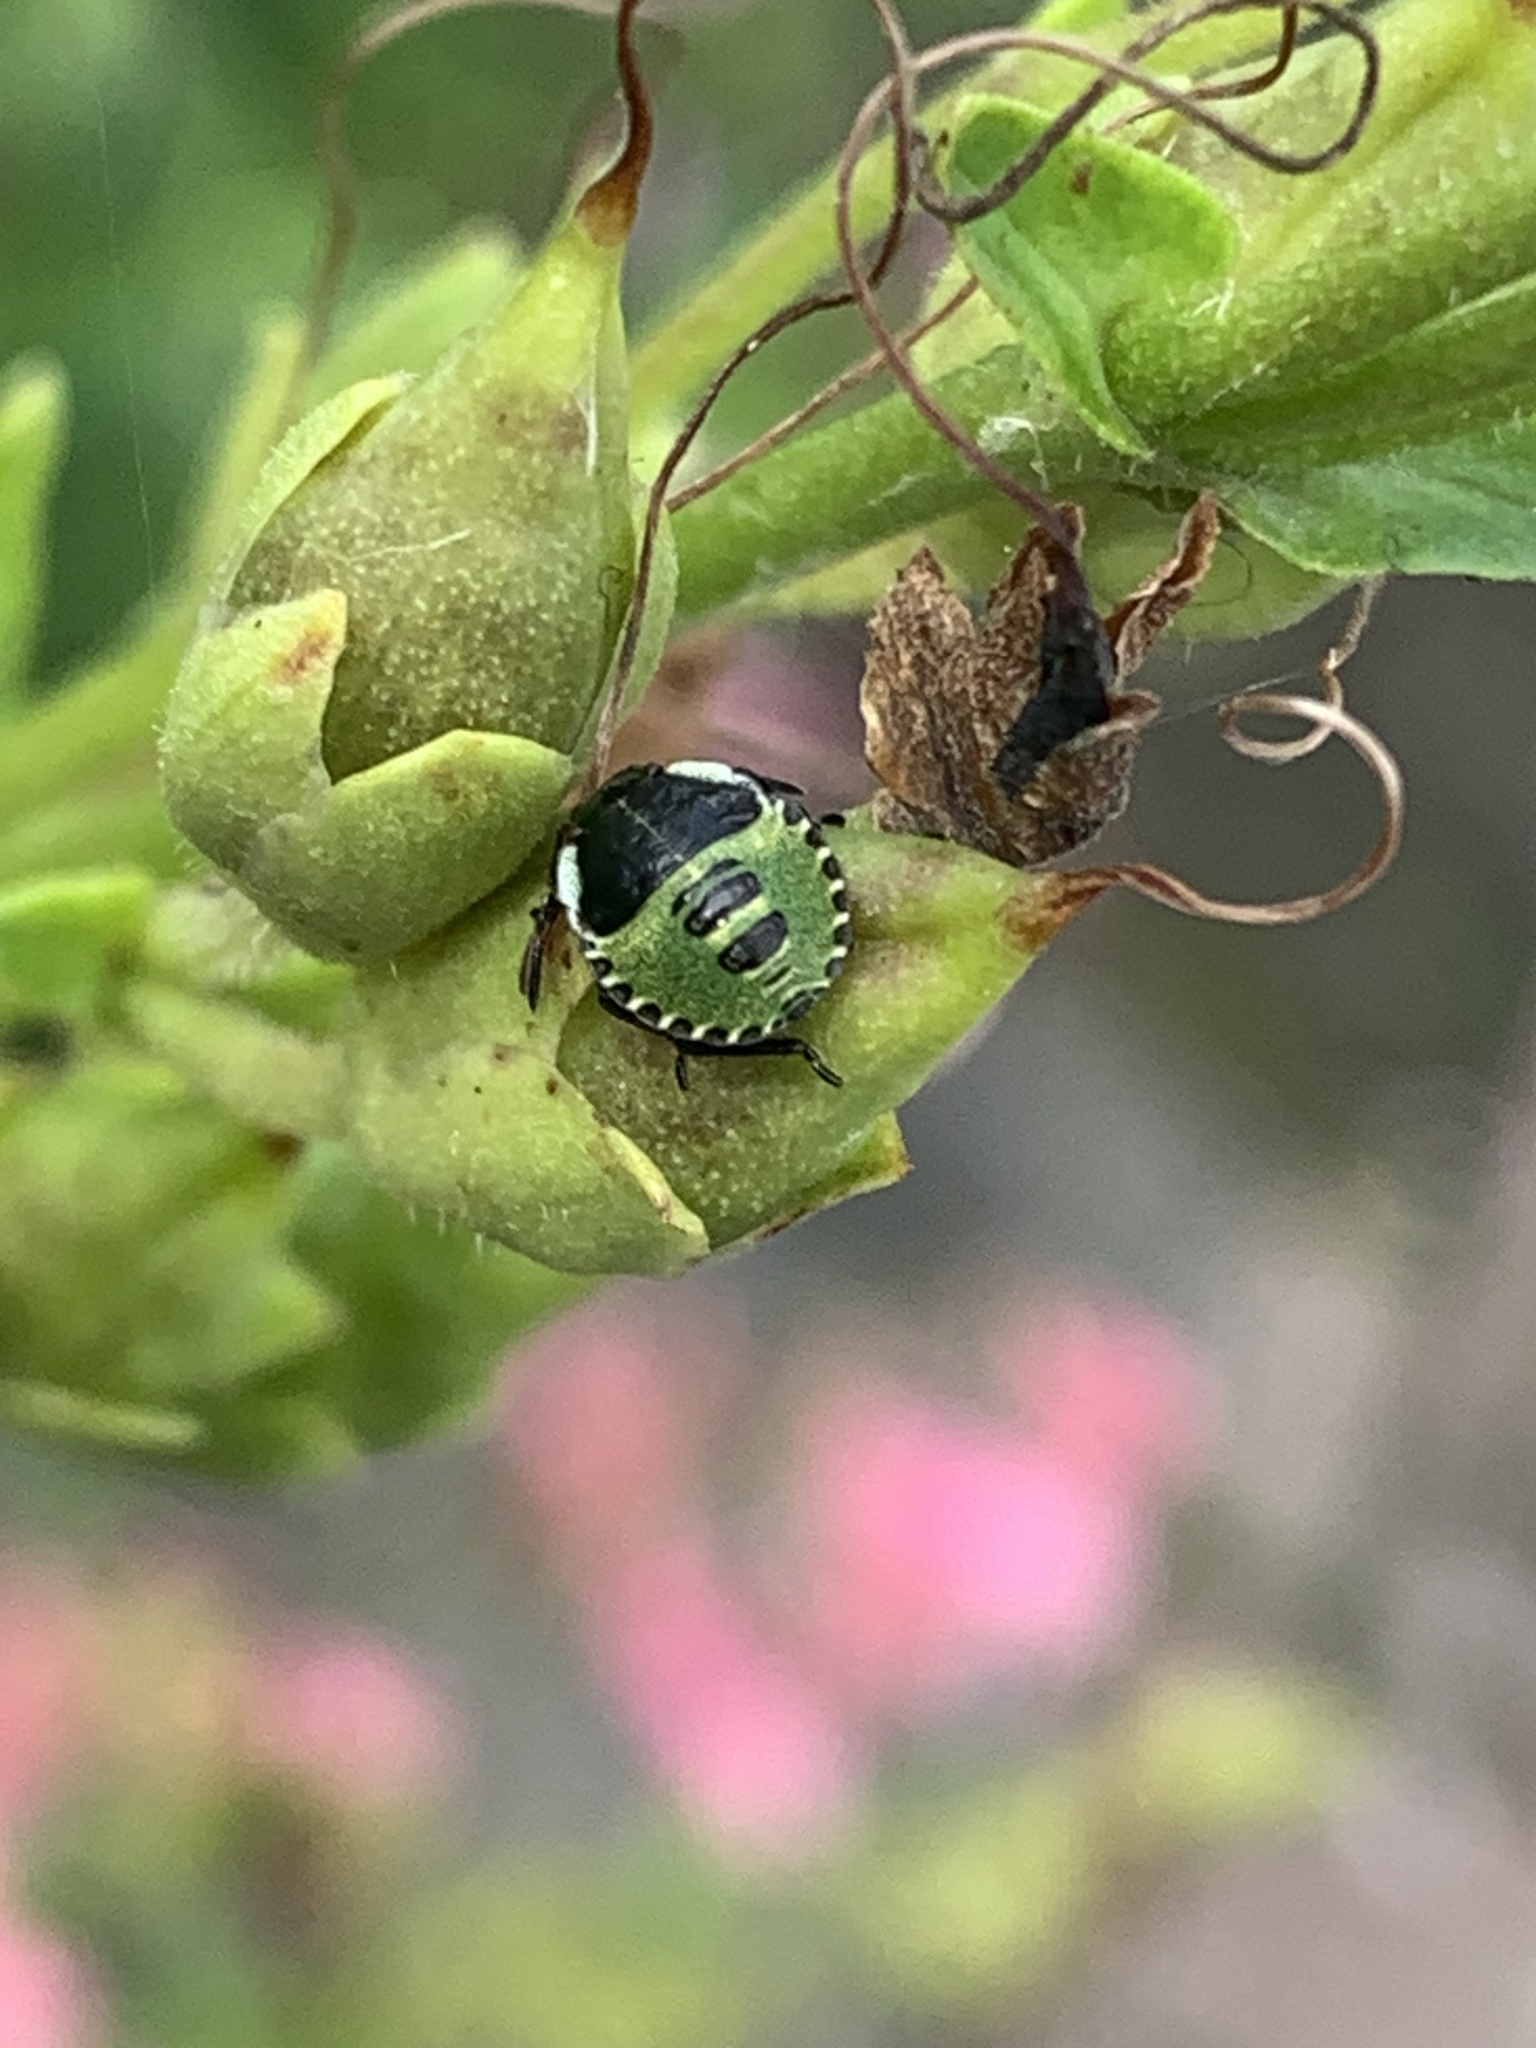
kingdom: Animalia
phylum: Arthropoda
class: Insecta
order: Hemiptera
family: Pentatomidae
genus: Palomena
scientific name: Palomena prasina
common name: Green shieldbug
